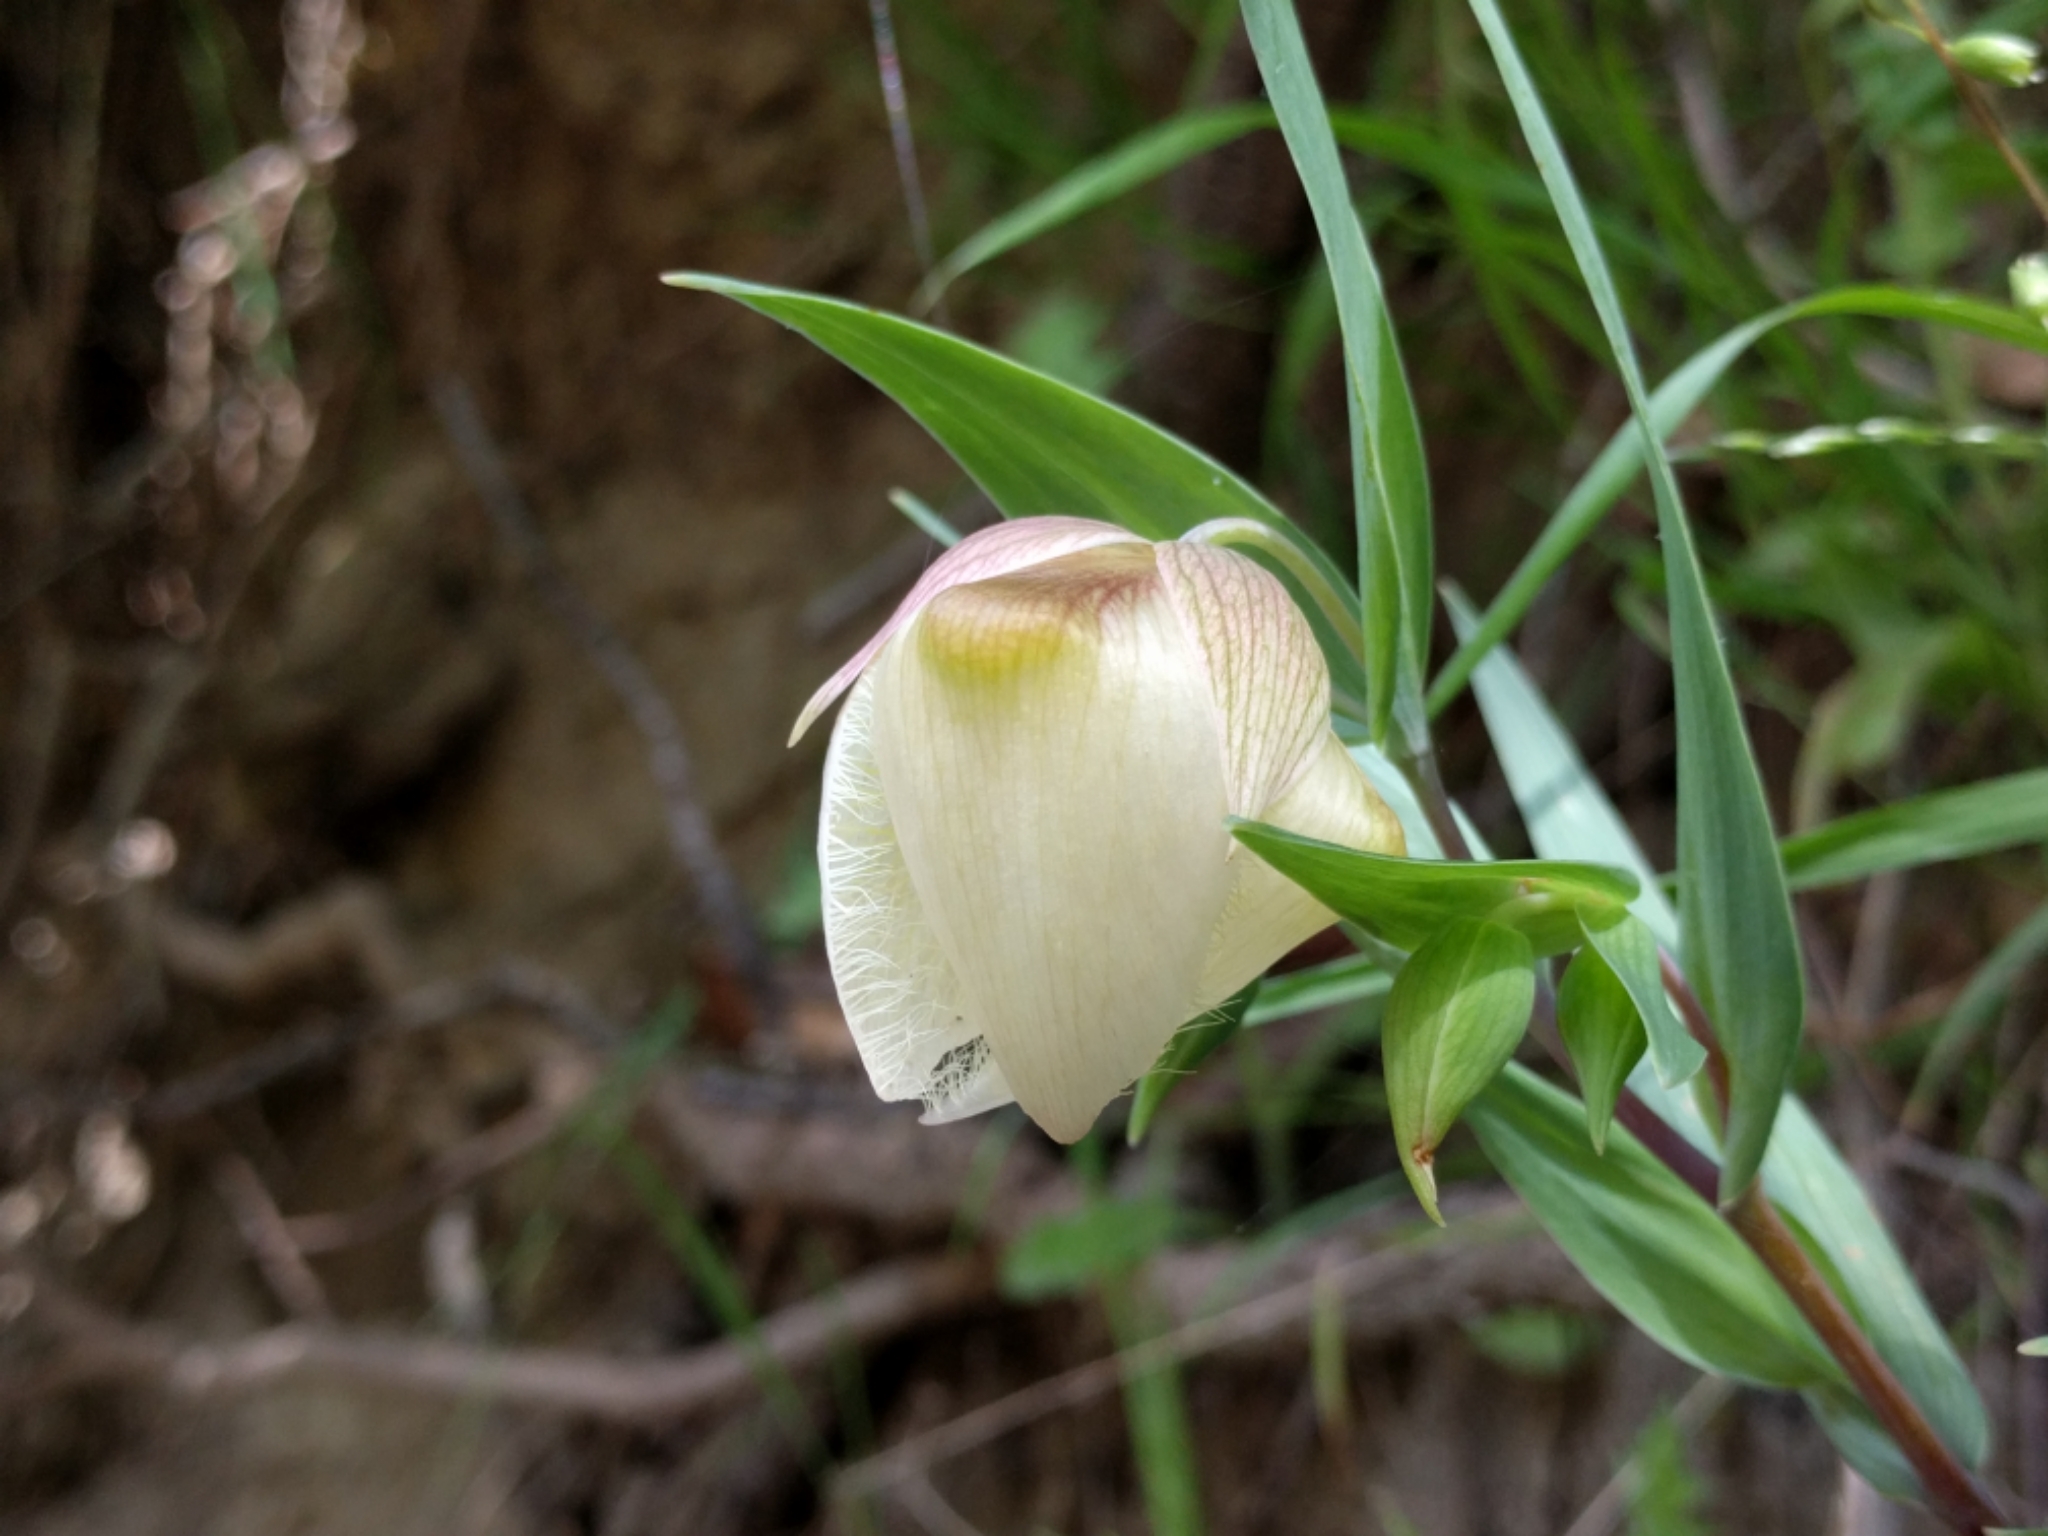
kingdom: Plantae
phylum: Tracheophyta
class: Liliopsida
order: Liliales
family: Liliaceae
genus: Calochortus
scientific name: Calochortus albus
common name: Fairy-lantern
